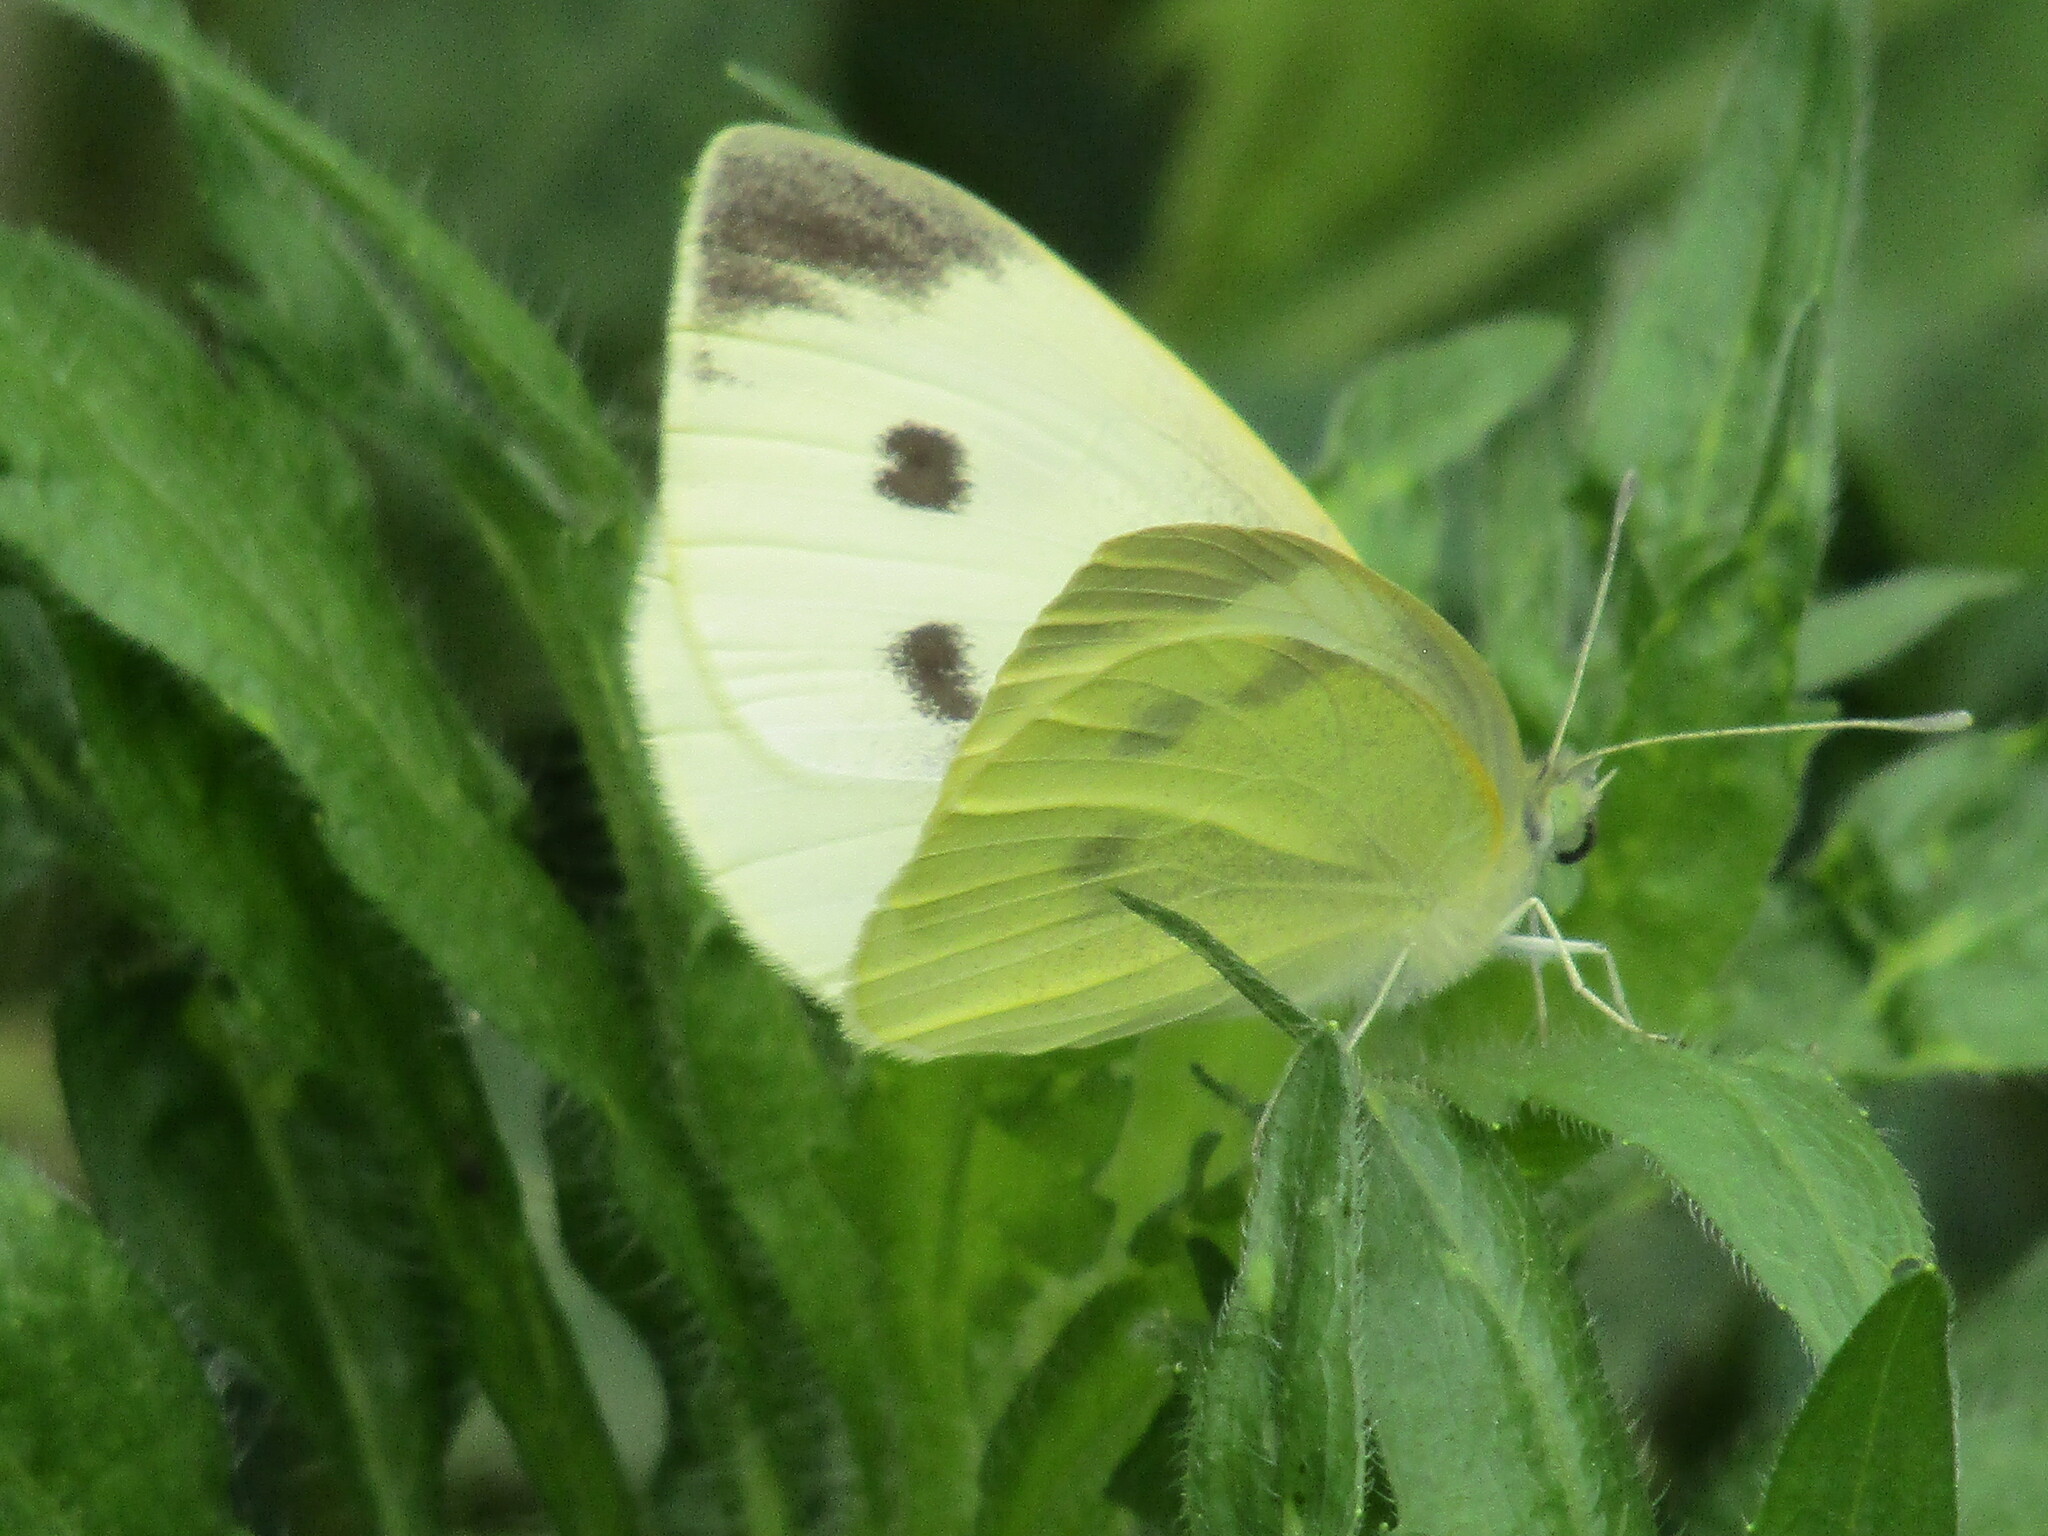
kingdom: Animalia
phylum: Arthropoda
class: Insecta
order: Lepidoptera
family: Pieridae
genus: Pieris
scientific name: Pieris mannii
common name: Southern small white
